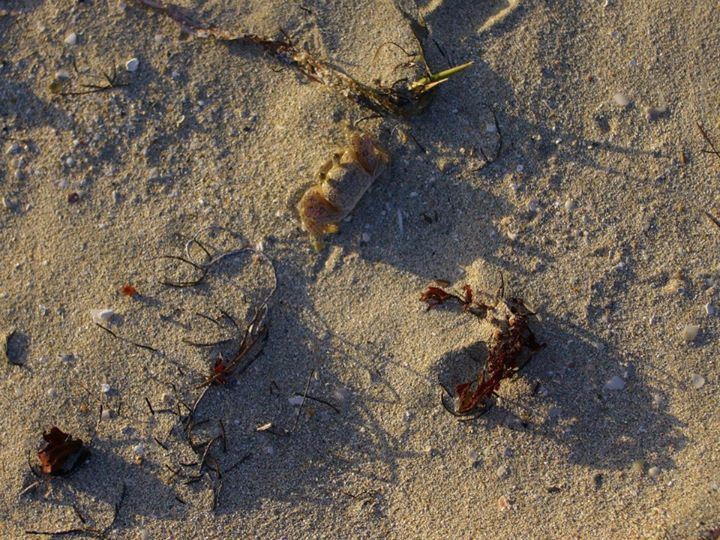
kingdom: Animalia
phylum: Arthropoda
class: Malacostraca
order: Decapoda
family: Ocypodidae
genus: Ocypode
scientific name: Ocypode quadrata
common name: Ghost crab
